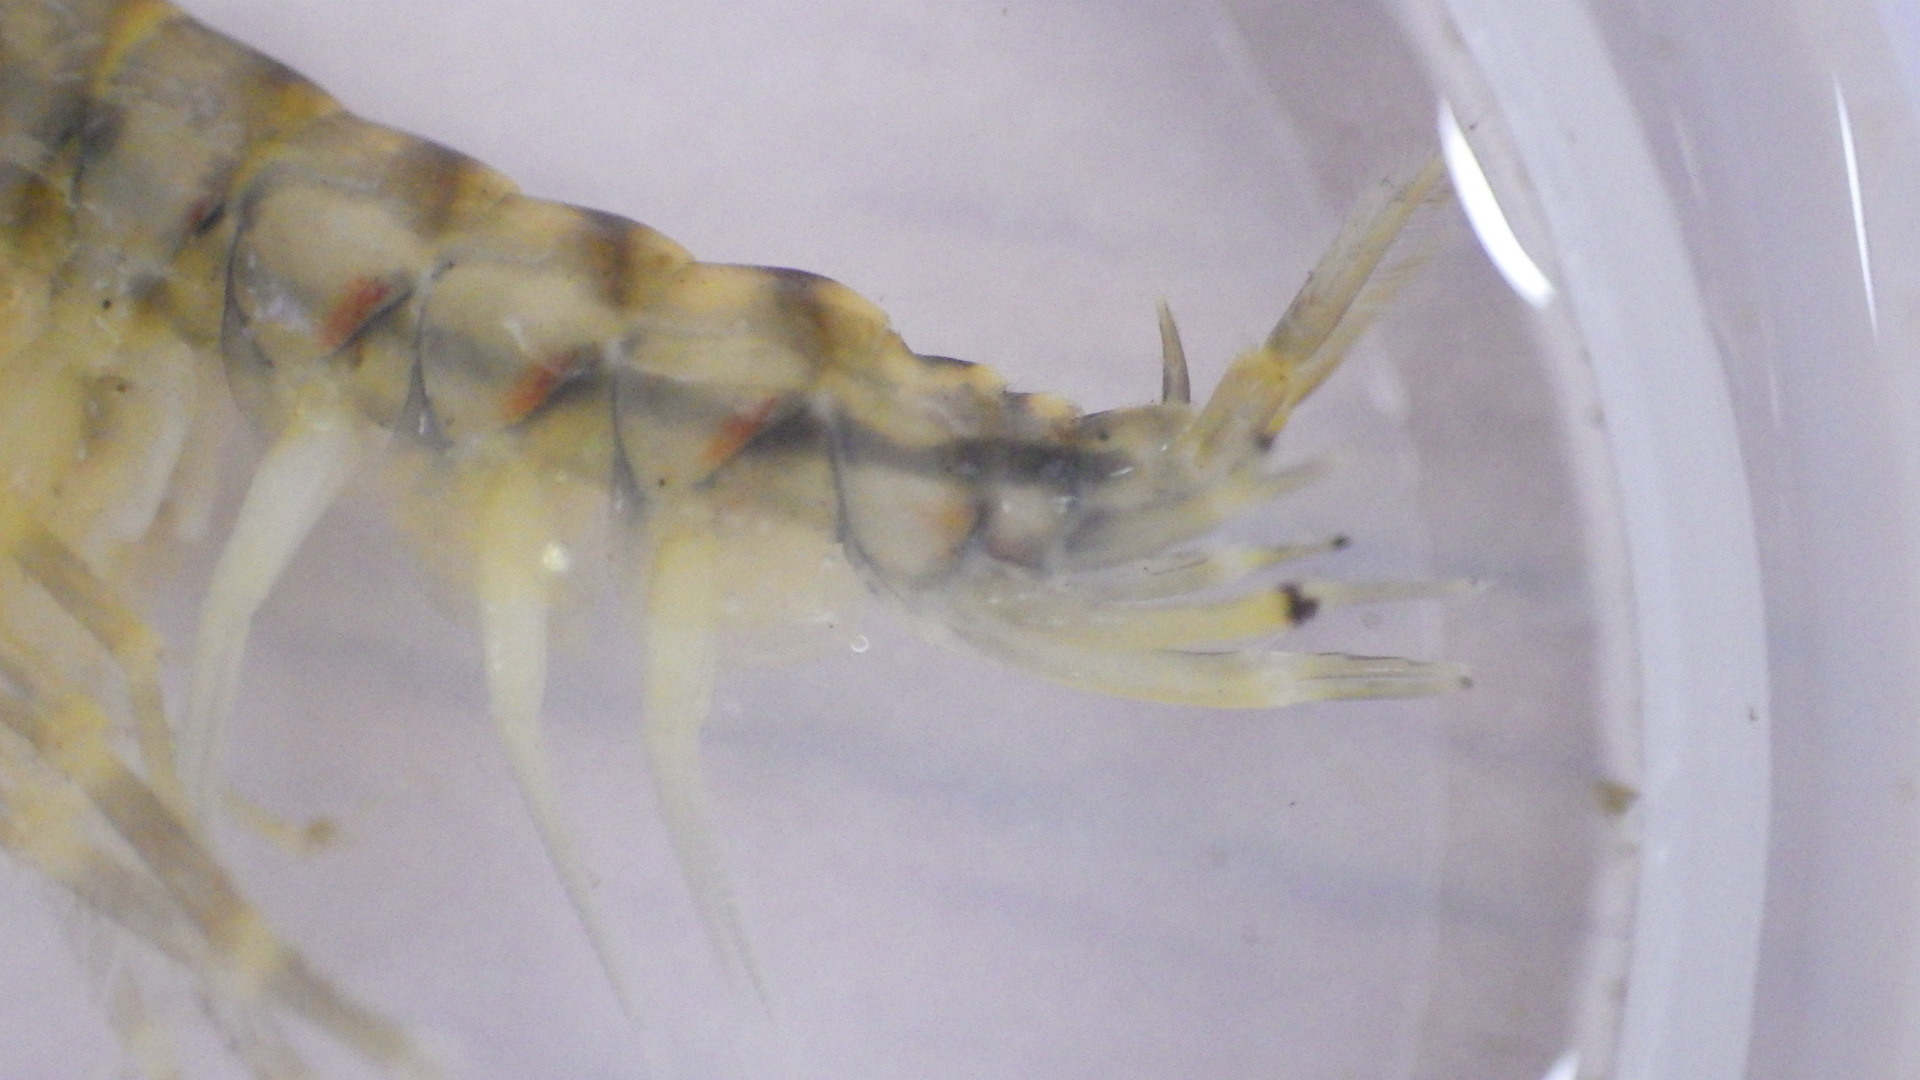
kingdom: Animalia
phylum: Arthropoda
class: Malacostraca
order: Amphipoda
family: Gammaridae
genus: Gammarus
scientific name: Gammarus fasciatus
